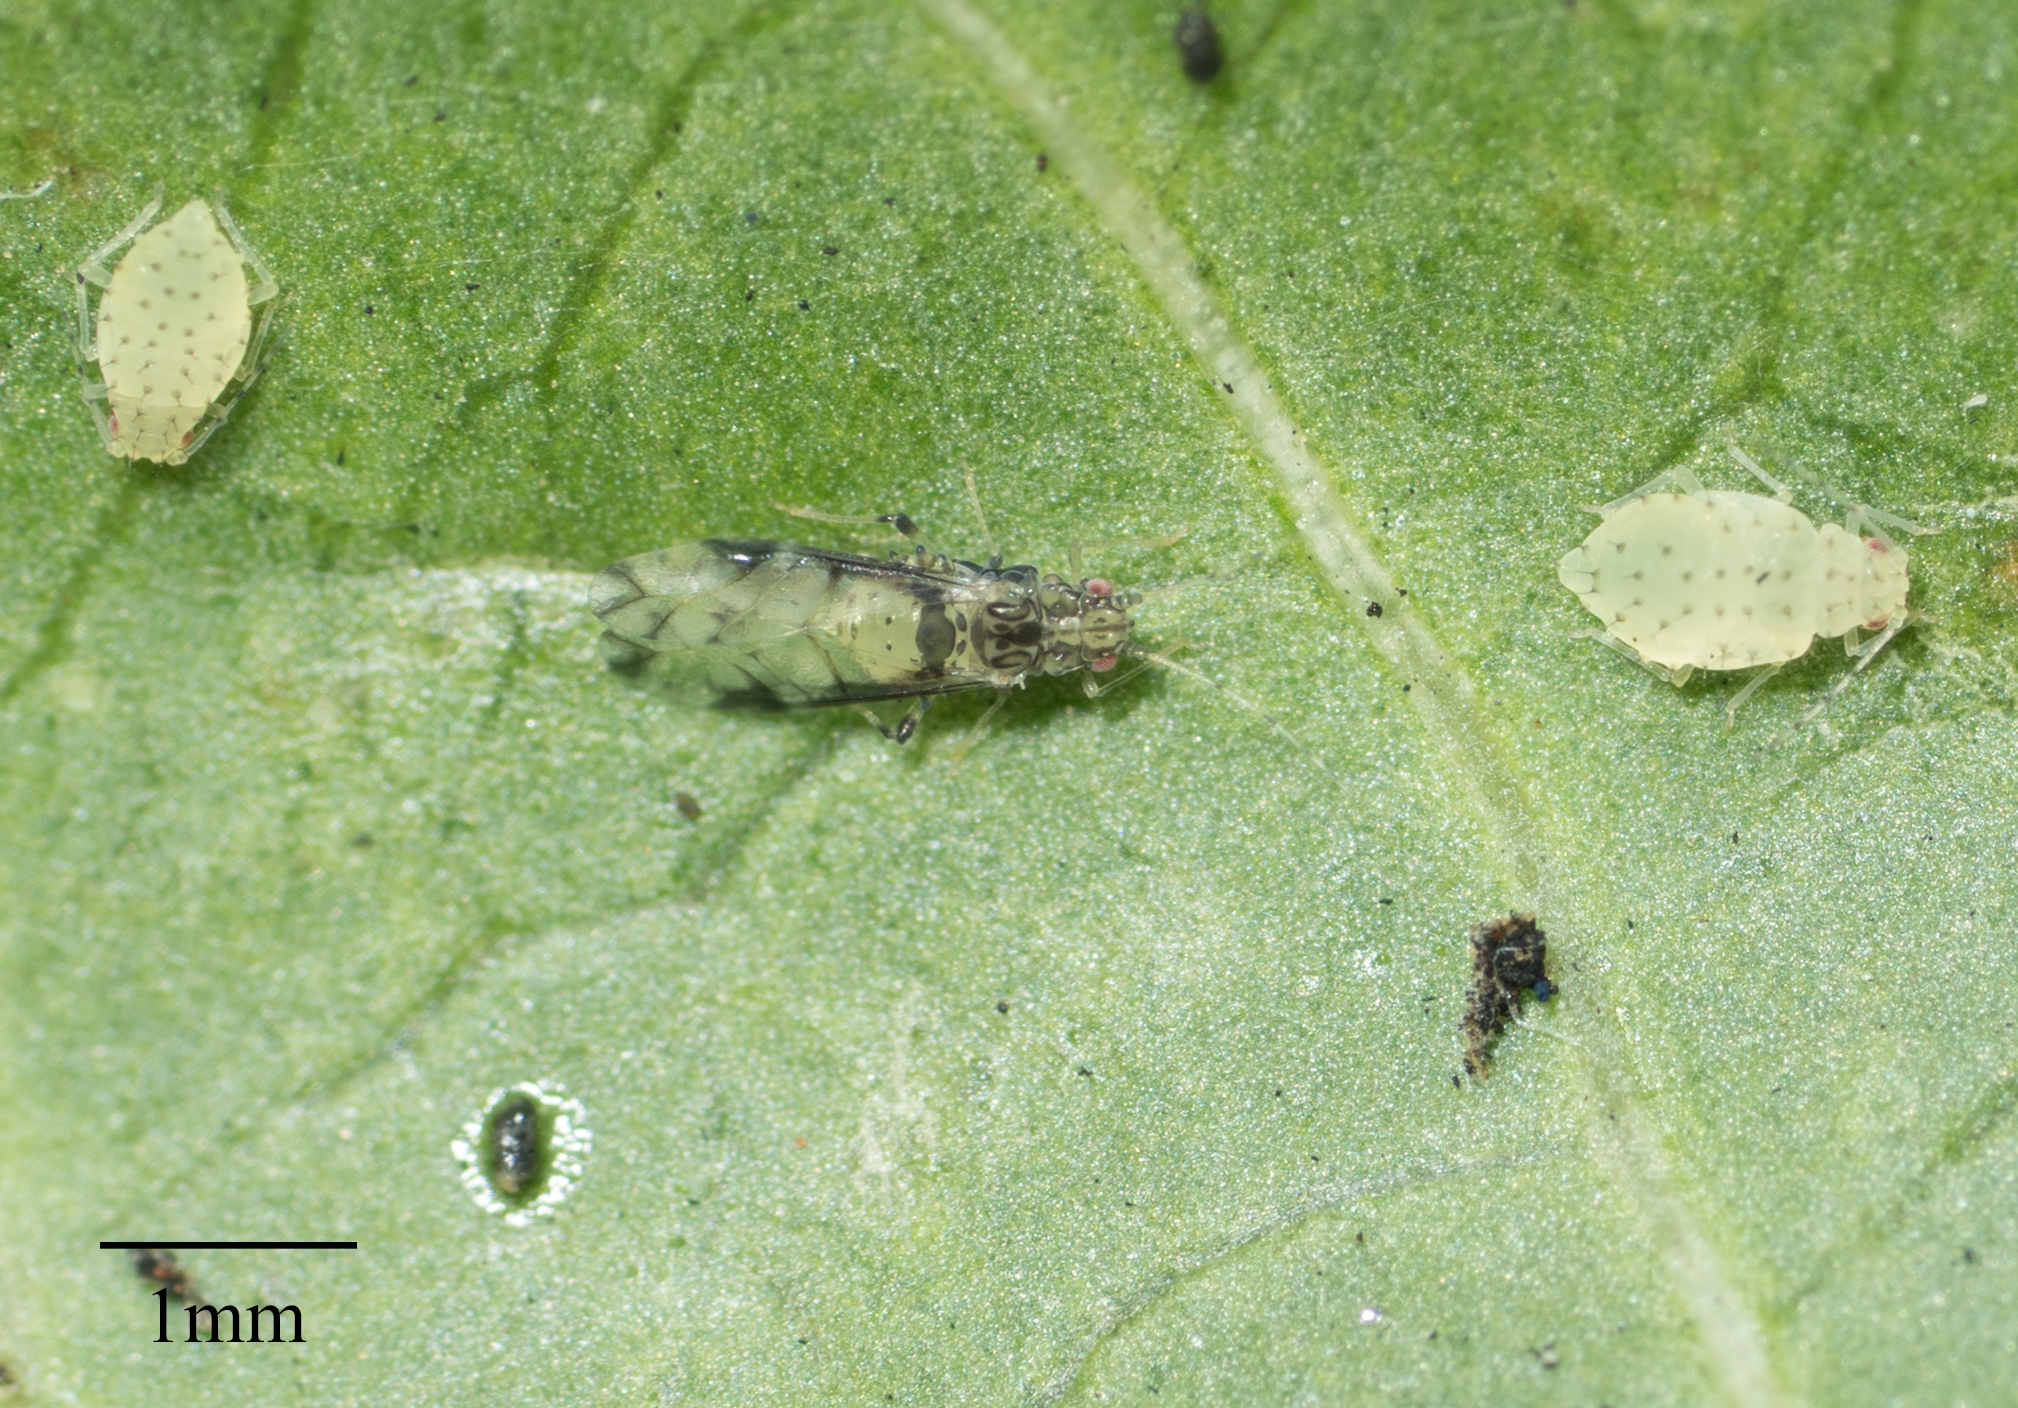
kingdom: Animalia
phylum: Arthropoda
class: Insecta
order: Hemiptera
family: Aphididae
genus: Sarucallis
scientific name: Sarucallis kahawaluokalani
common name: Crapemyrtle aphid
